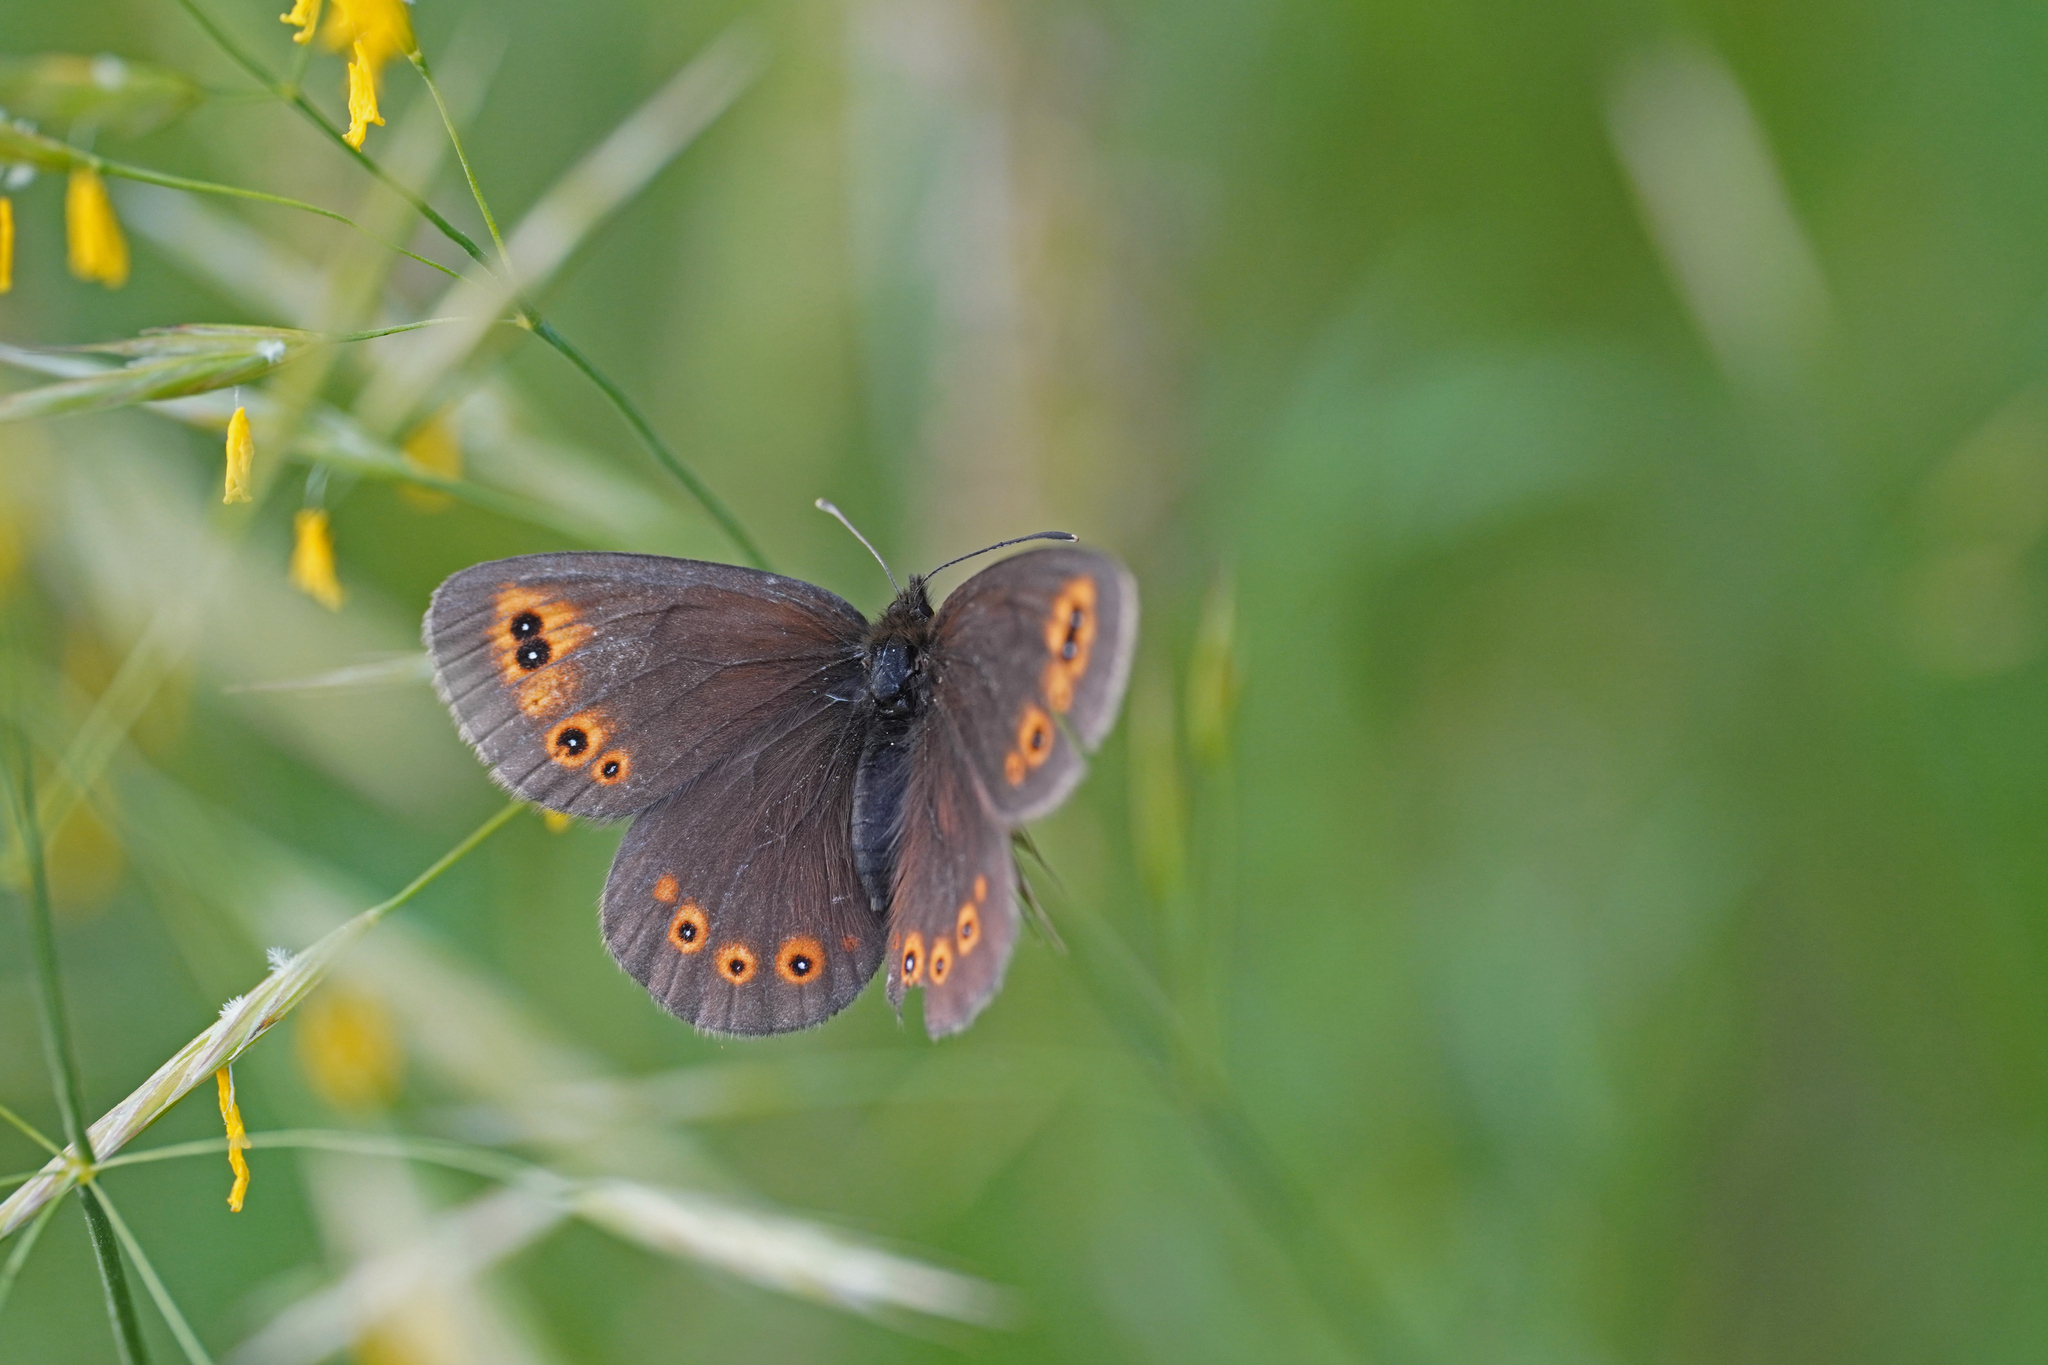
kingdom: Animalia
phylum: Arthropoda
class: Insecta
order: Lepidoptera
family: Nymphalidae
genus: Erebia
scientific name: Erebia medusa
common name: Woodland ringlet
